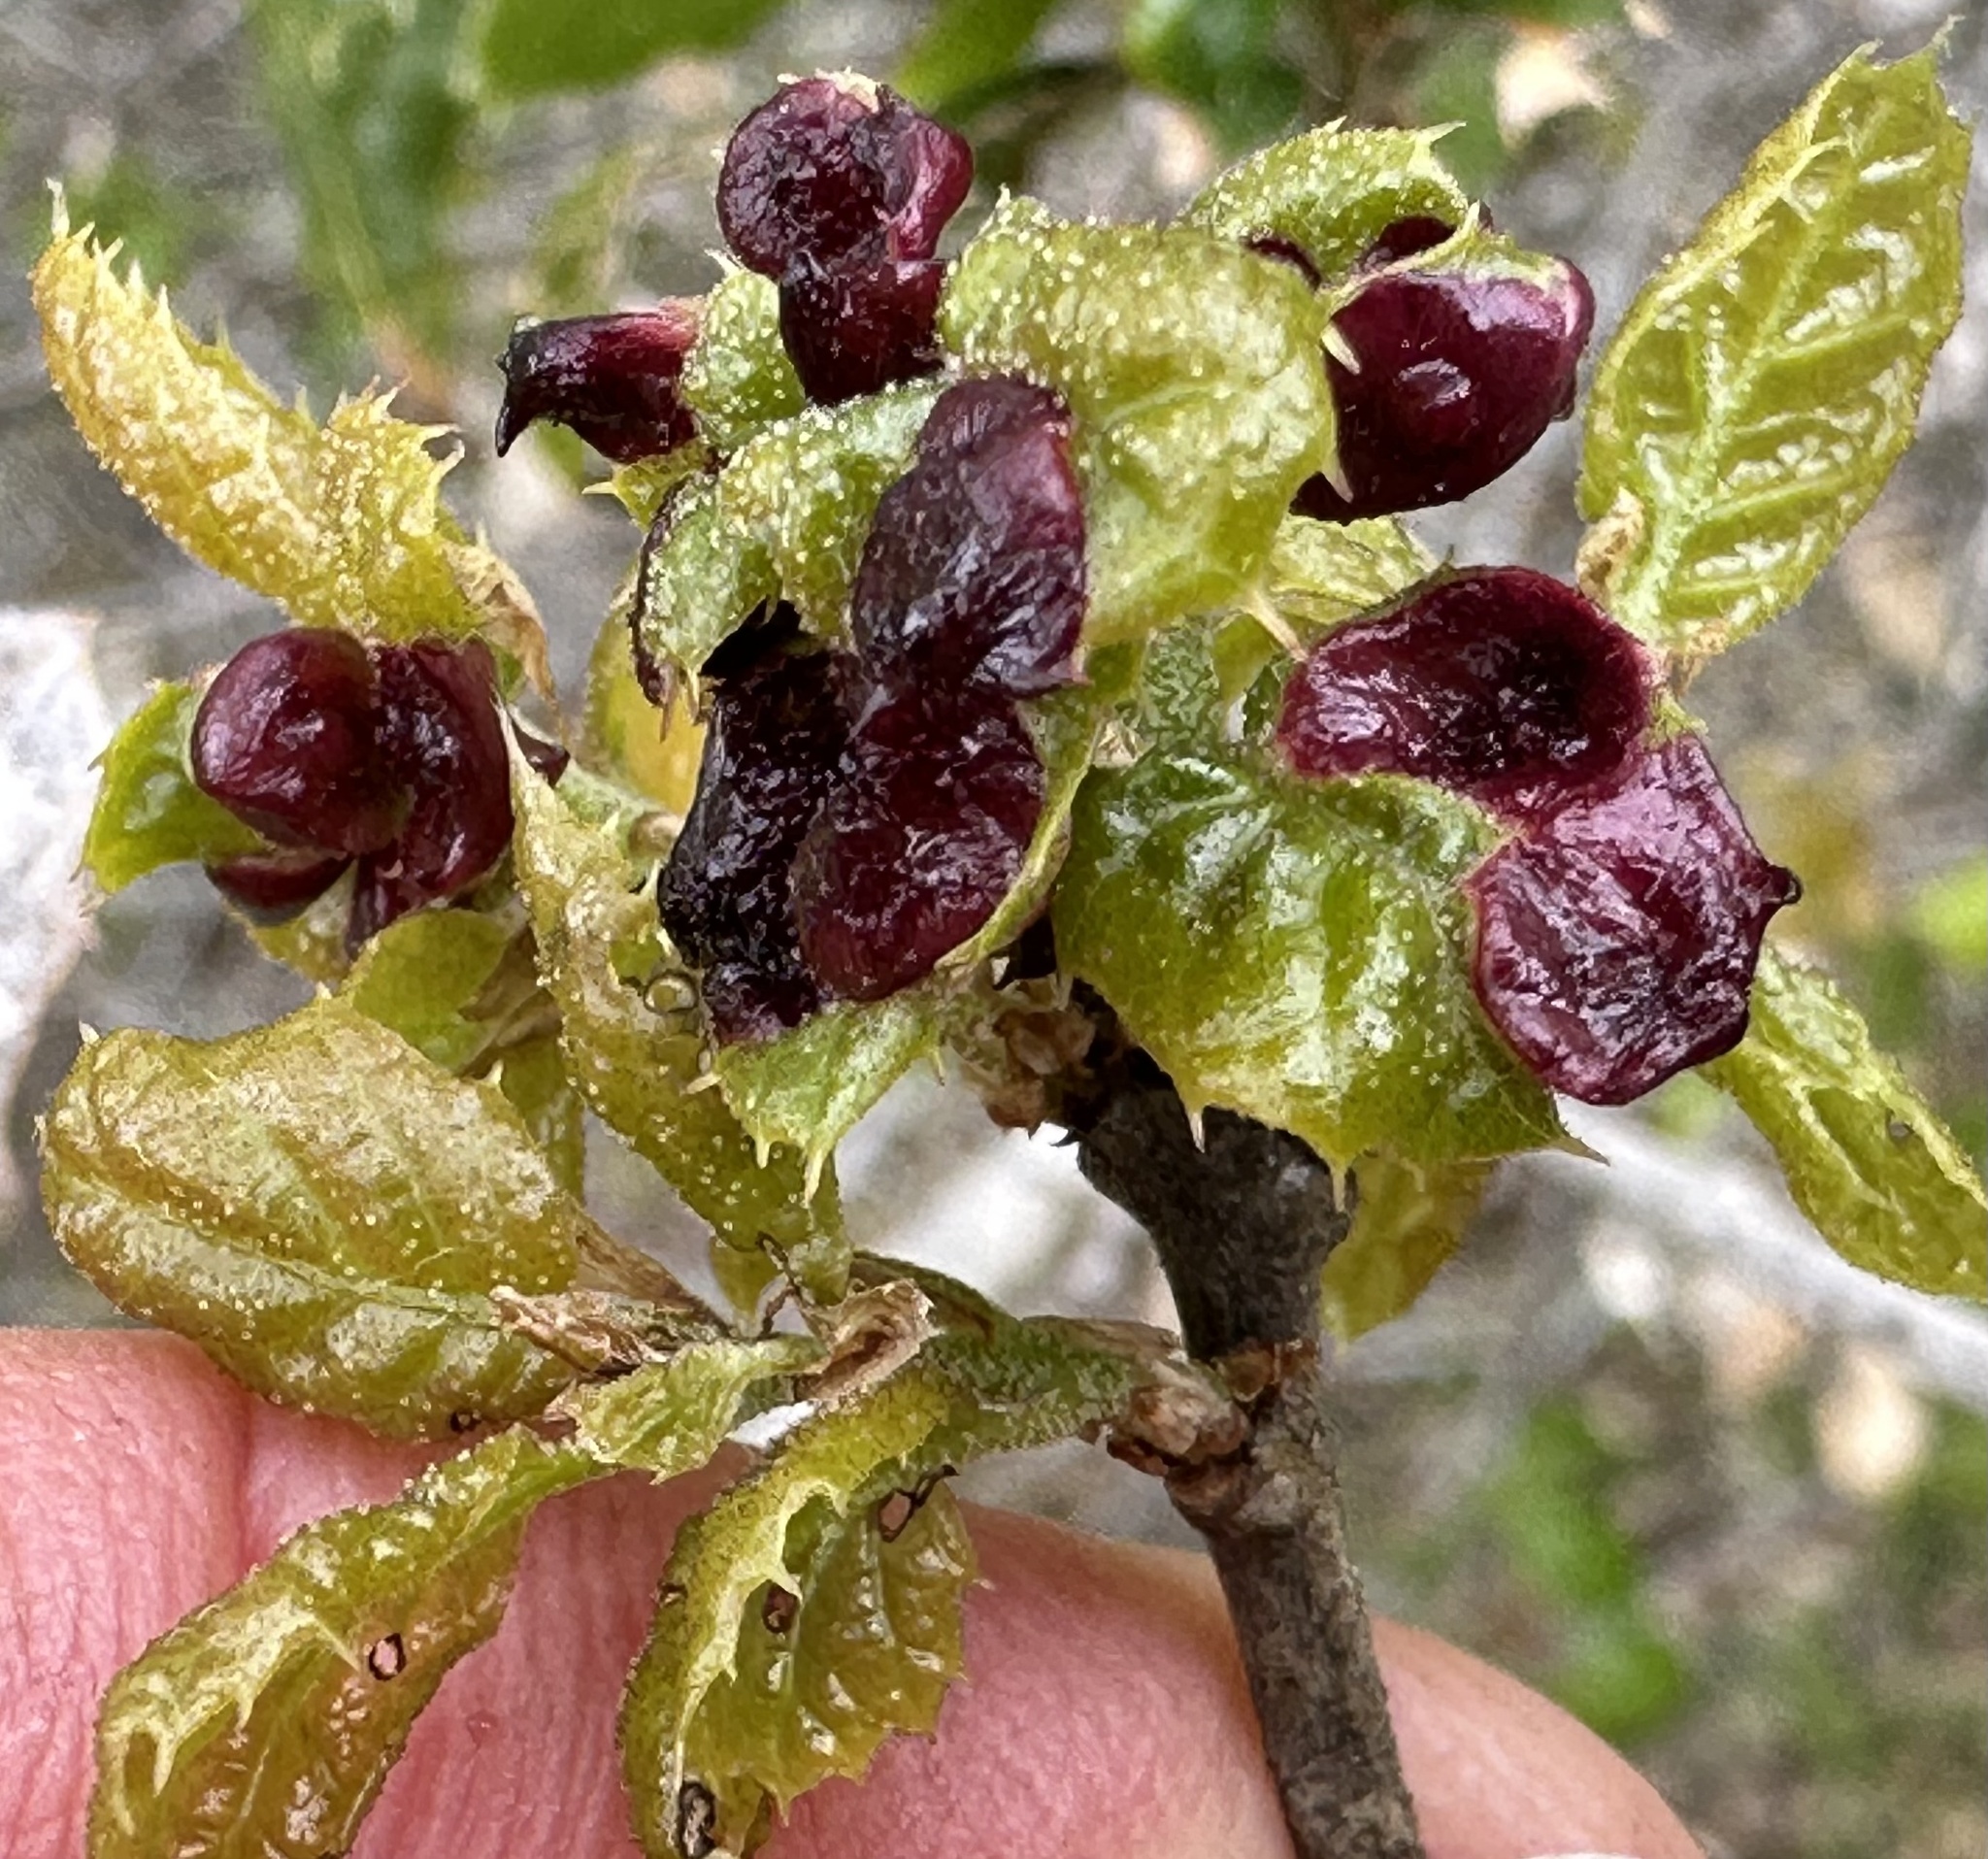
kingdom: Animalia
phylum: Arthropoda
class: Insecta
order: Hymenoptera
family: Cynipidae
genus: Dryocosmus
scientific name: Dryocosmus
